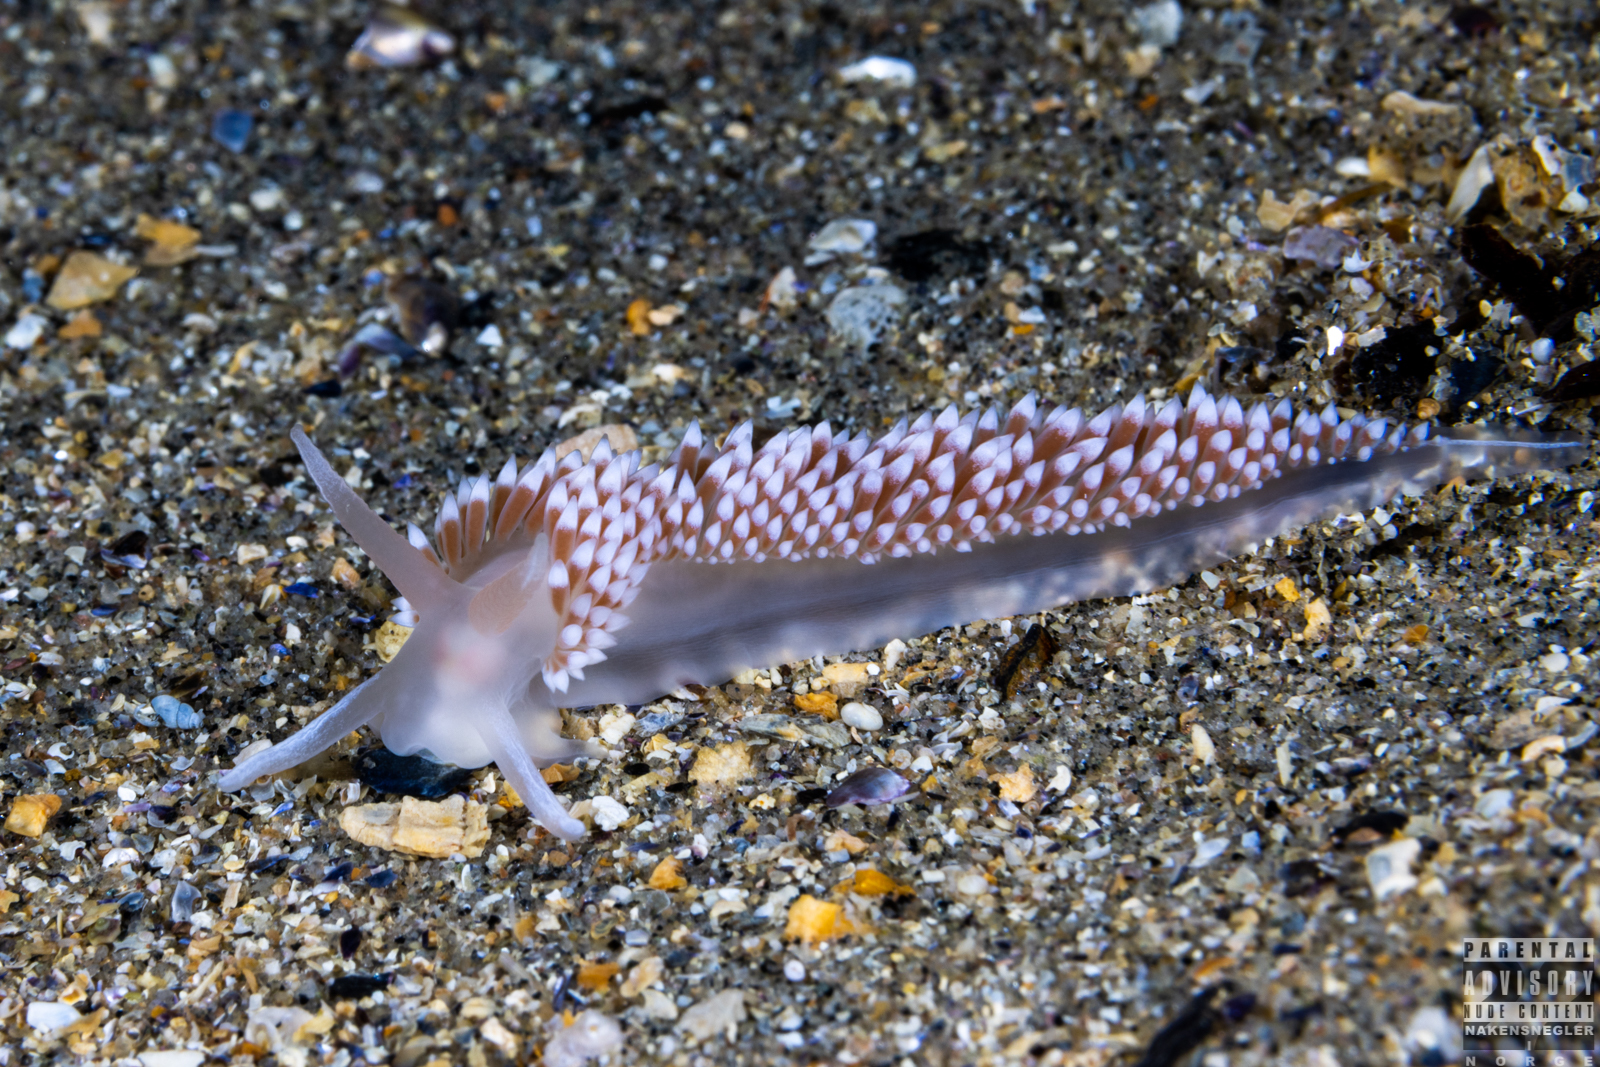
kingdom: Animalia
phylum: Mollusca
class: Gastropoda
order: Nudibranchia
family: Coryphellidae
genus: Coryphella
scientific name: Coryphella verrucosa
